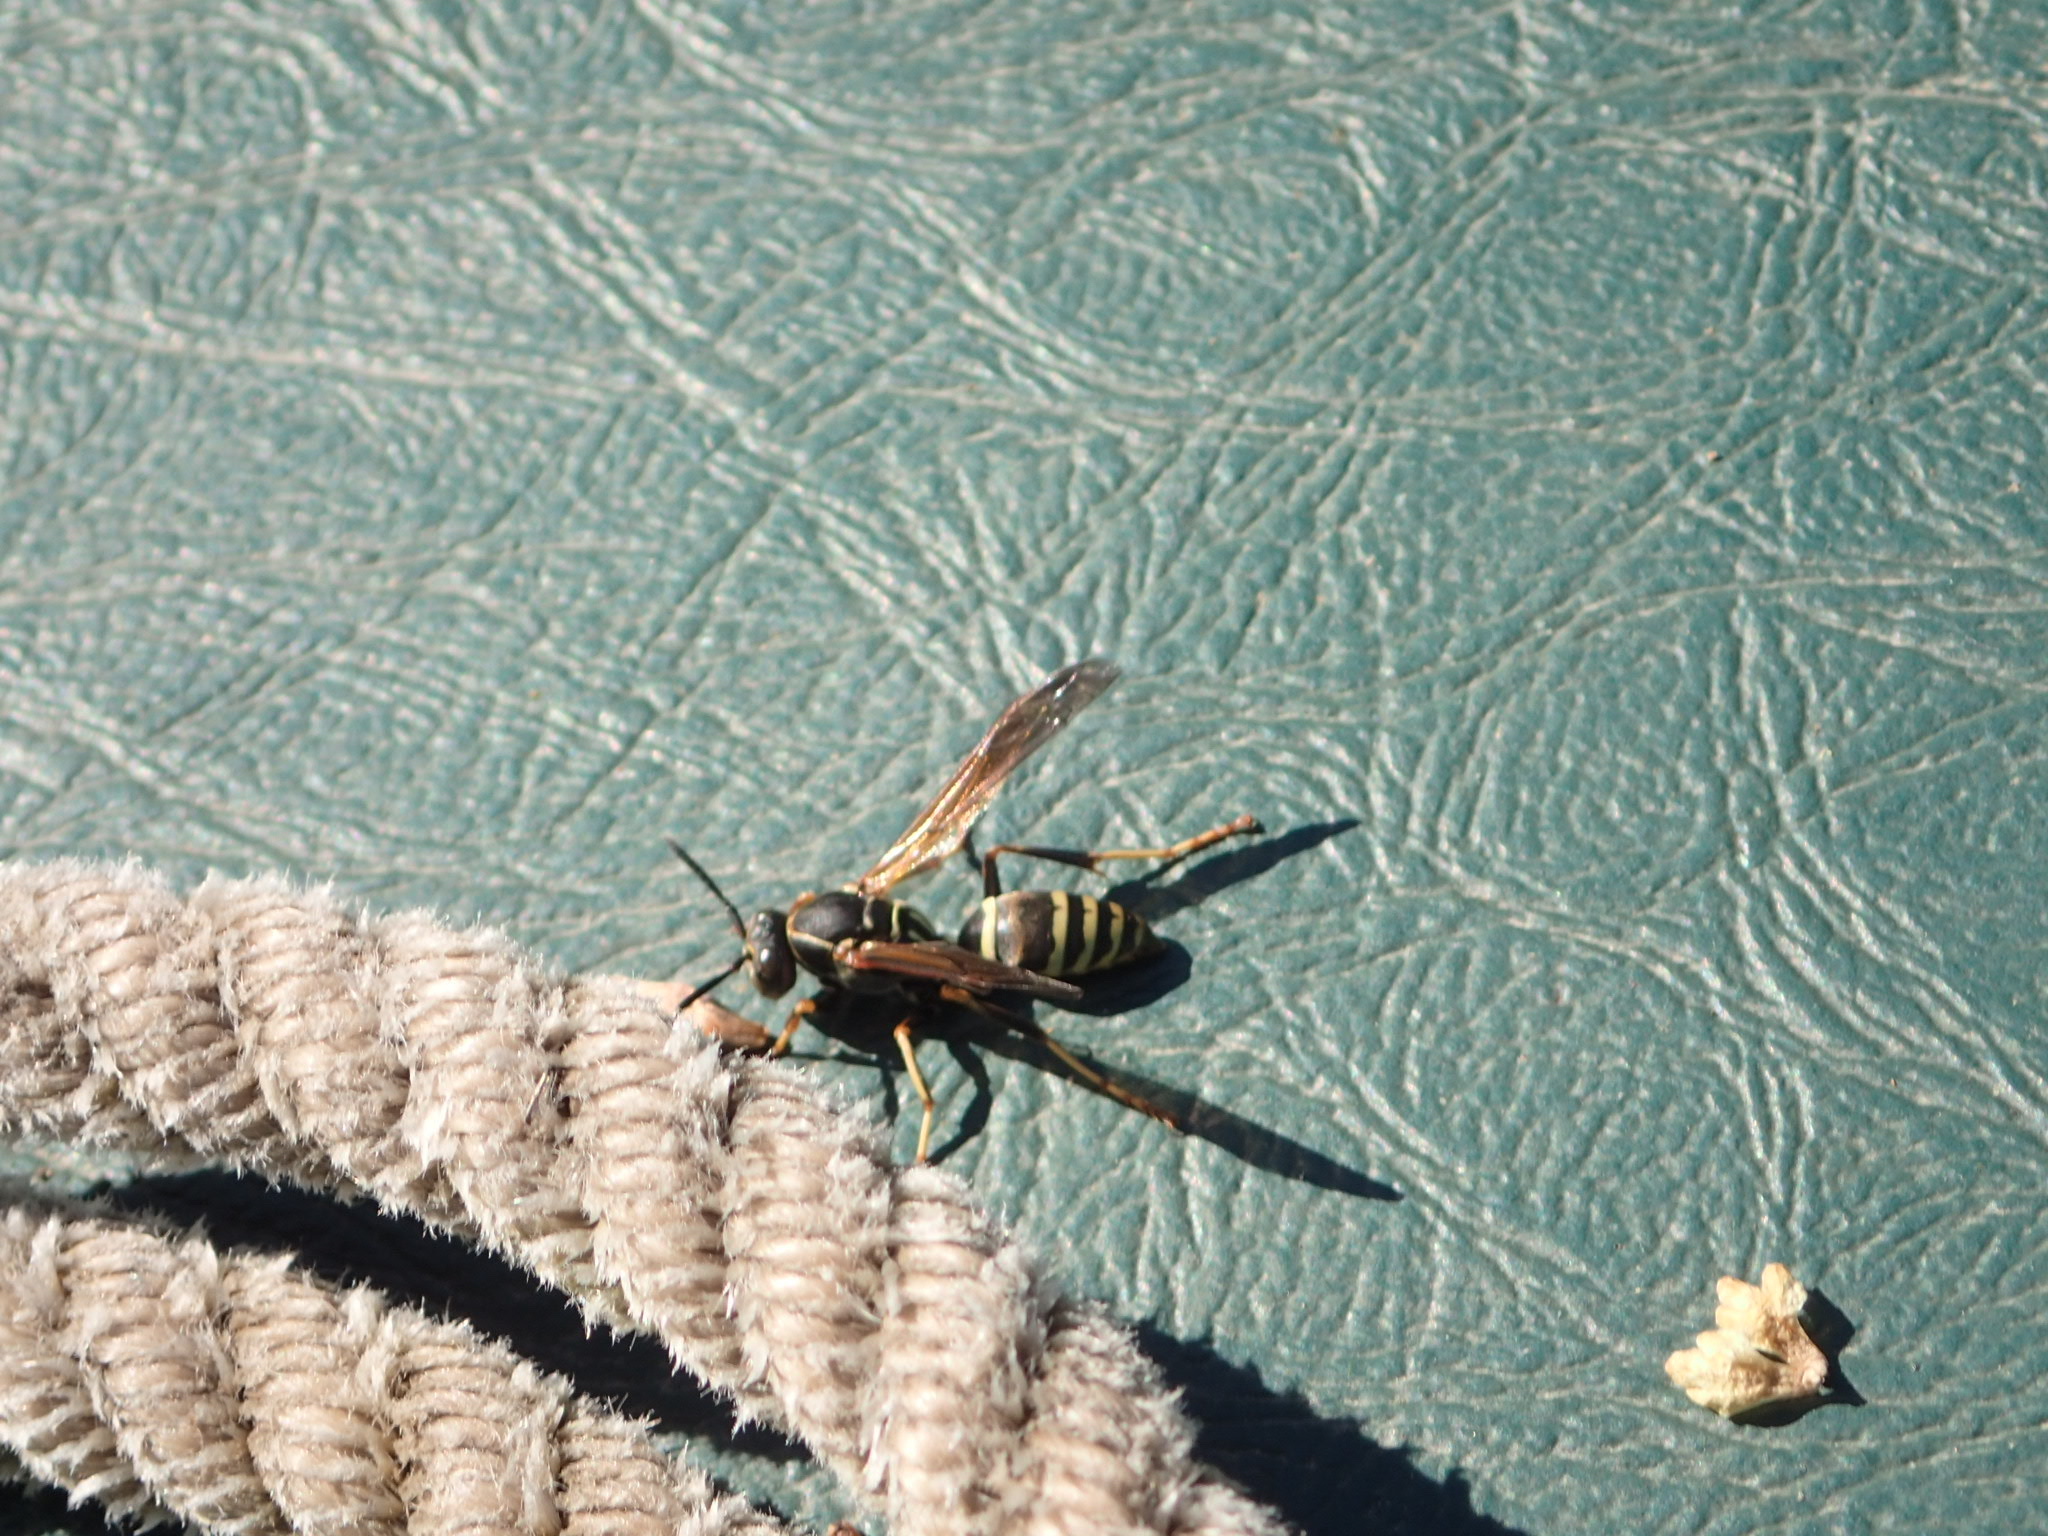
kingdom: Animalia
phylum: Arthropoda
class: Insecta
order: Hymenoptera
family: Eumenidae
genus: Polistes
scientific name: Polistes fuscatus
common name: Dark paper wasp
